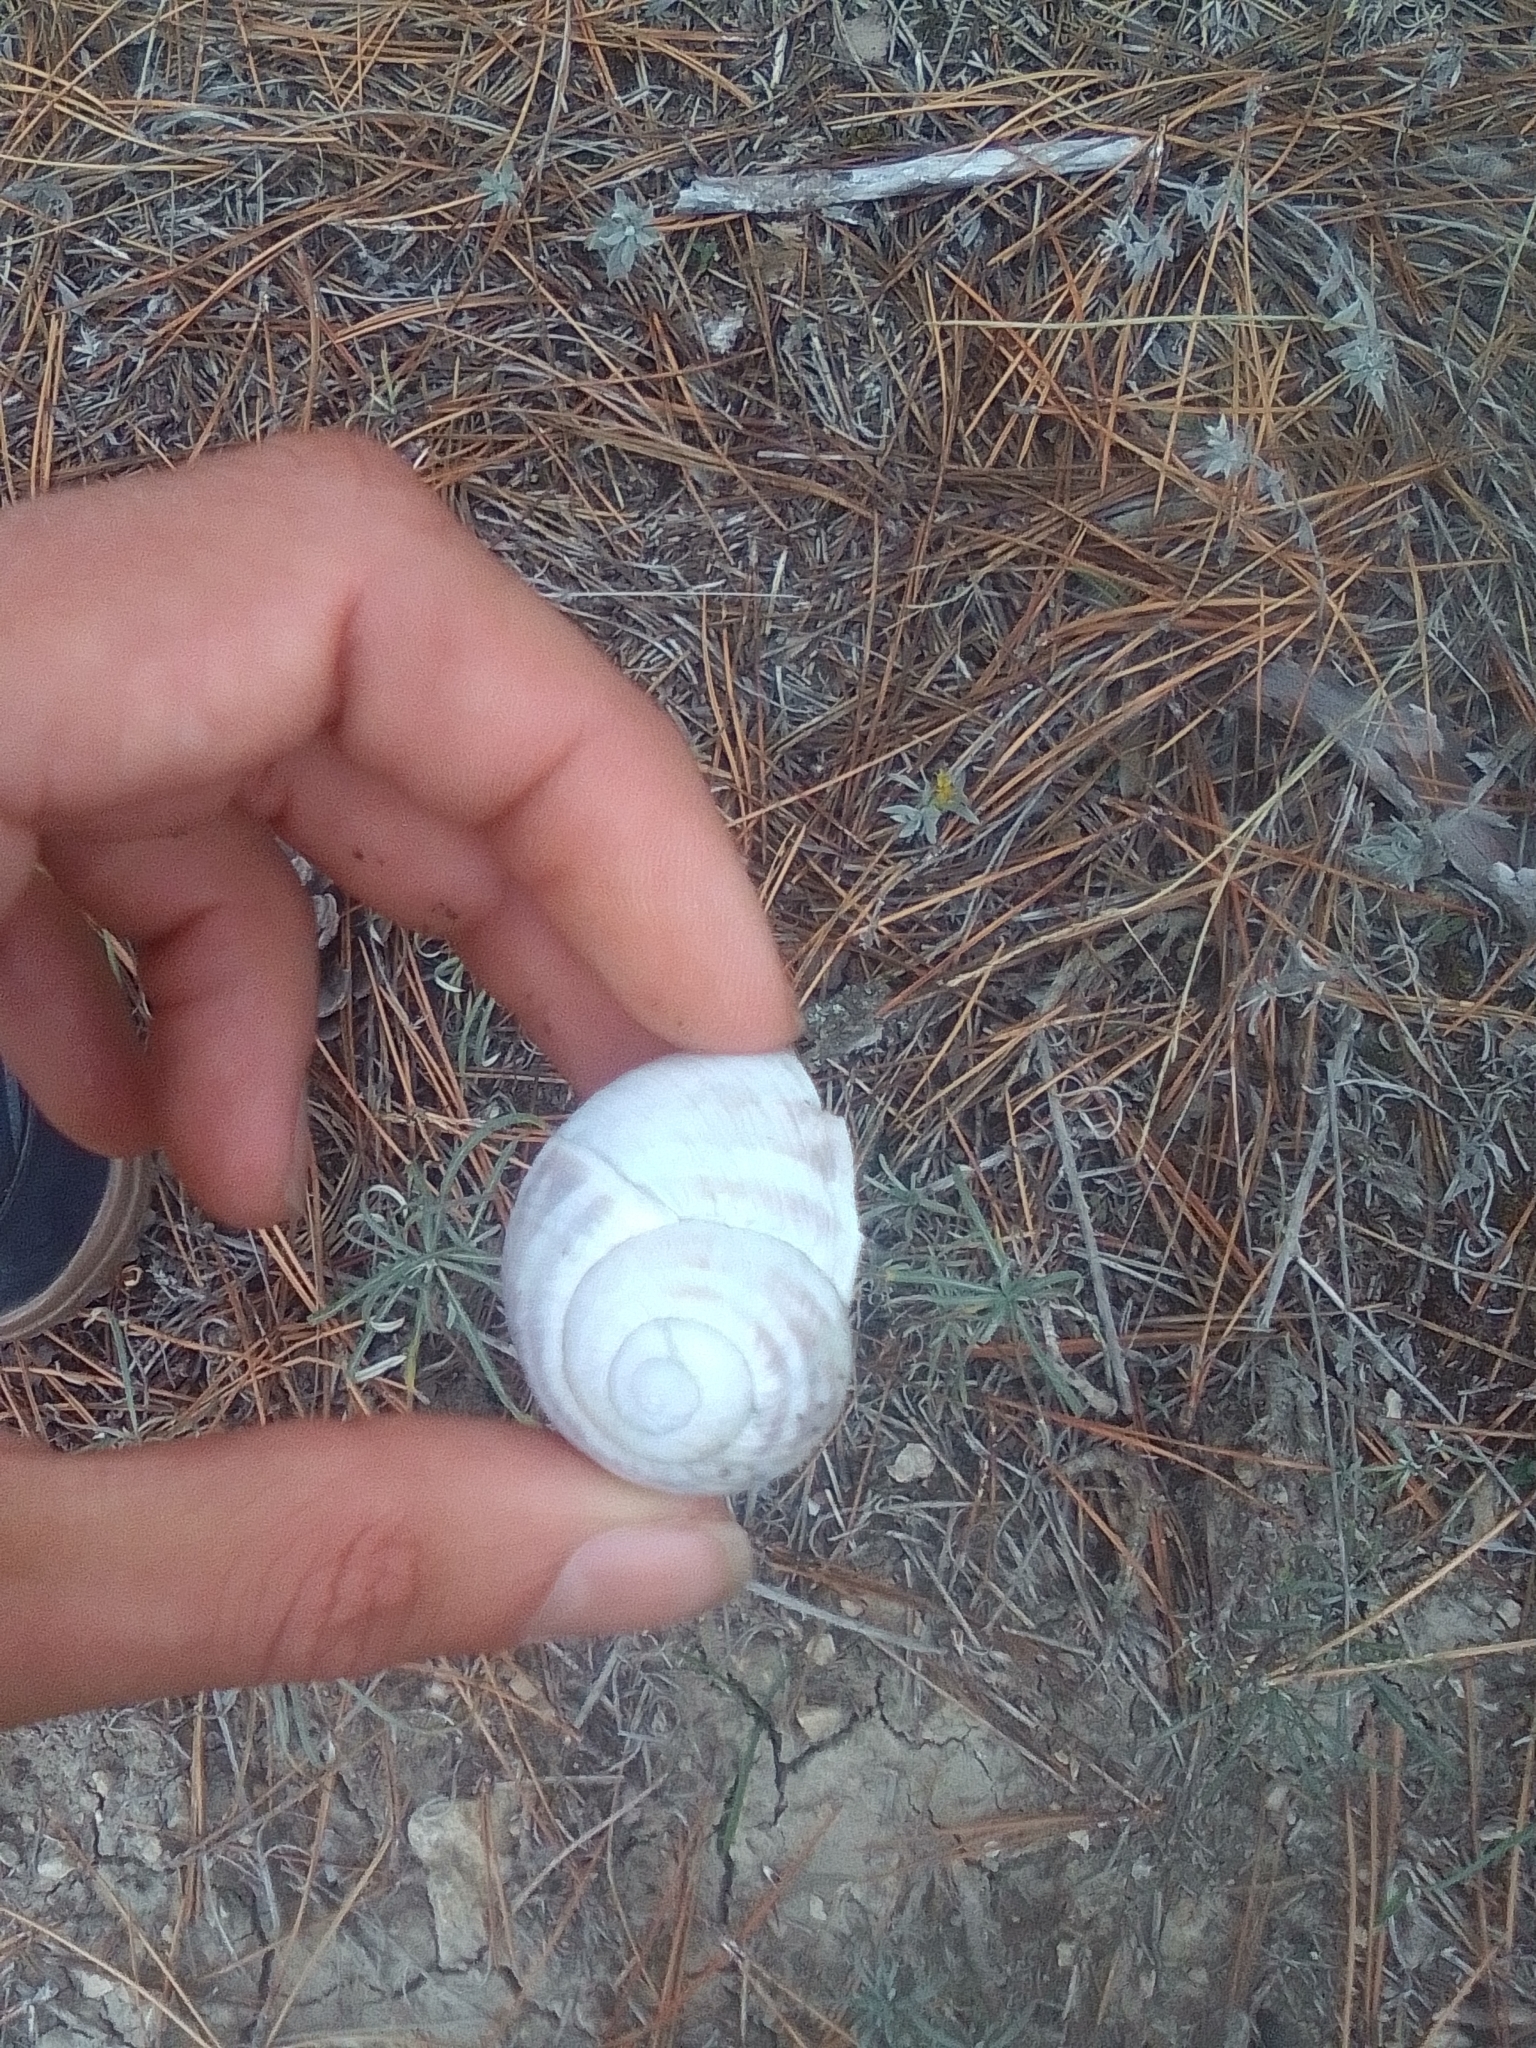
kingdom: Animalia
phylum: Mollusca
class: Gastropoda
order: Stylommatophora
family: Helicidae
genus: Helix
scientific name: Helix albescens
